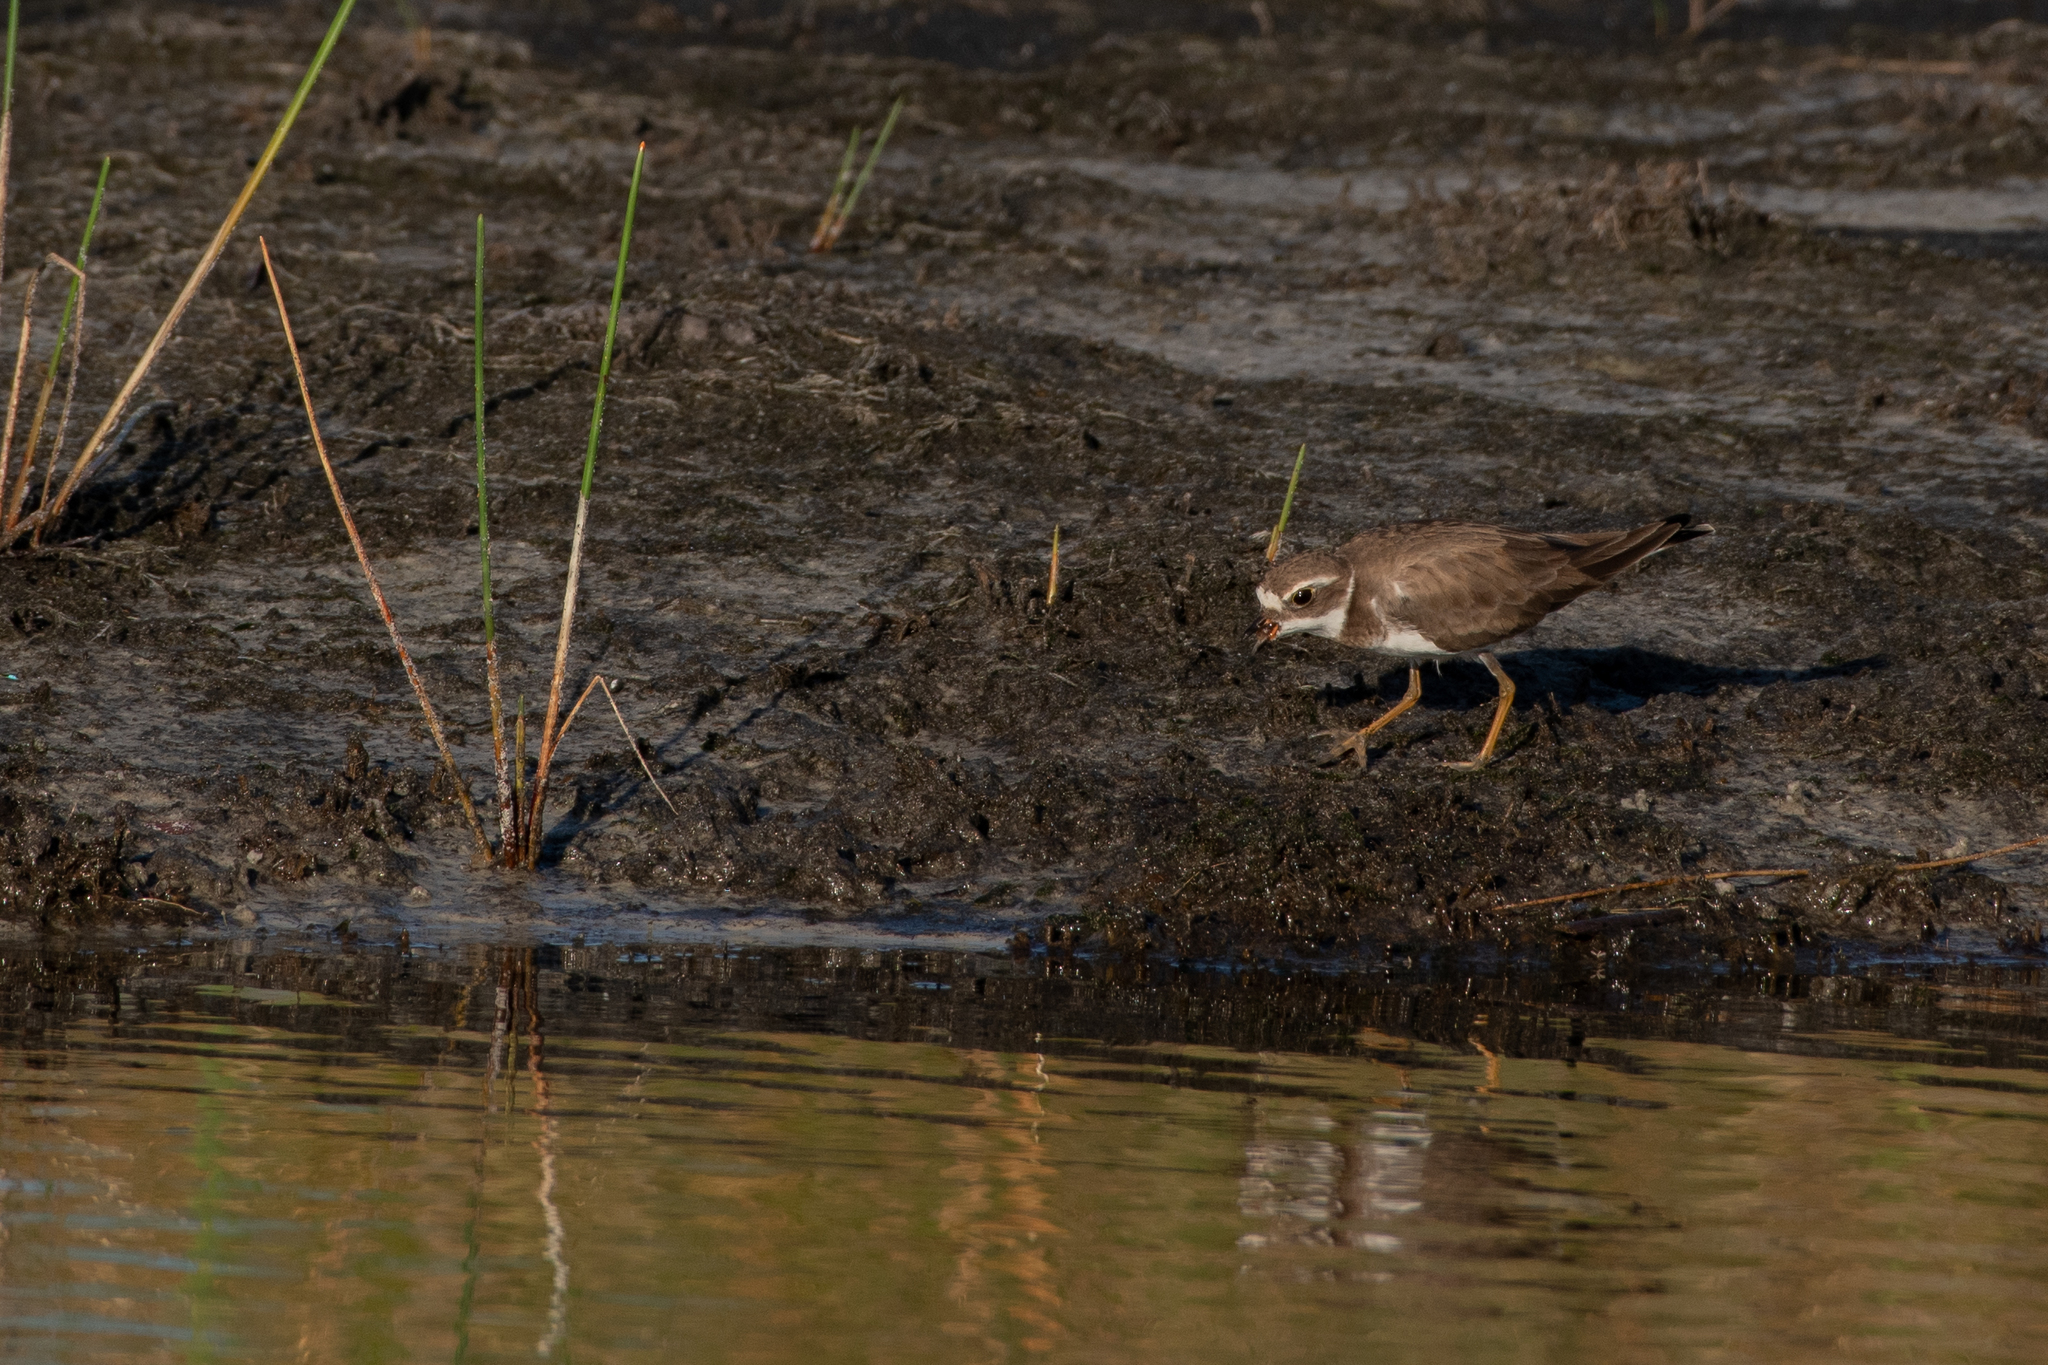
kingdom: Animalia
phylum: Chordata
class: Aves
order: Charadriiformes
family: Charadriidae
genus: Charadrius
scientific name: Charadrius semipalmatus
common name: Semipalmated plover
